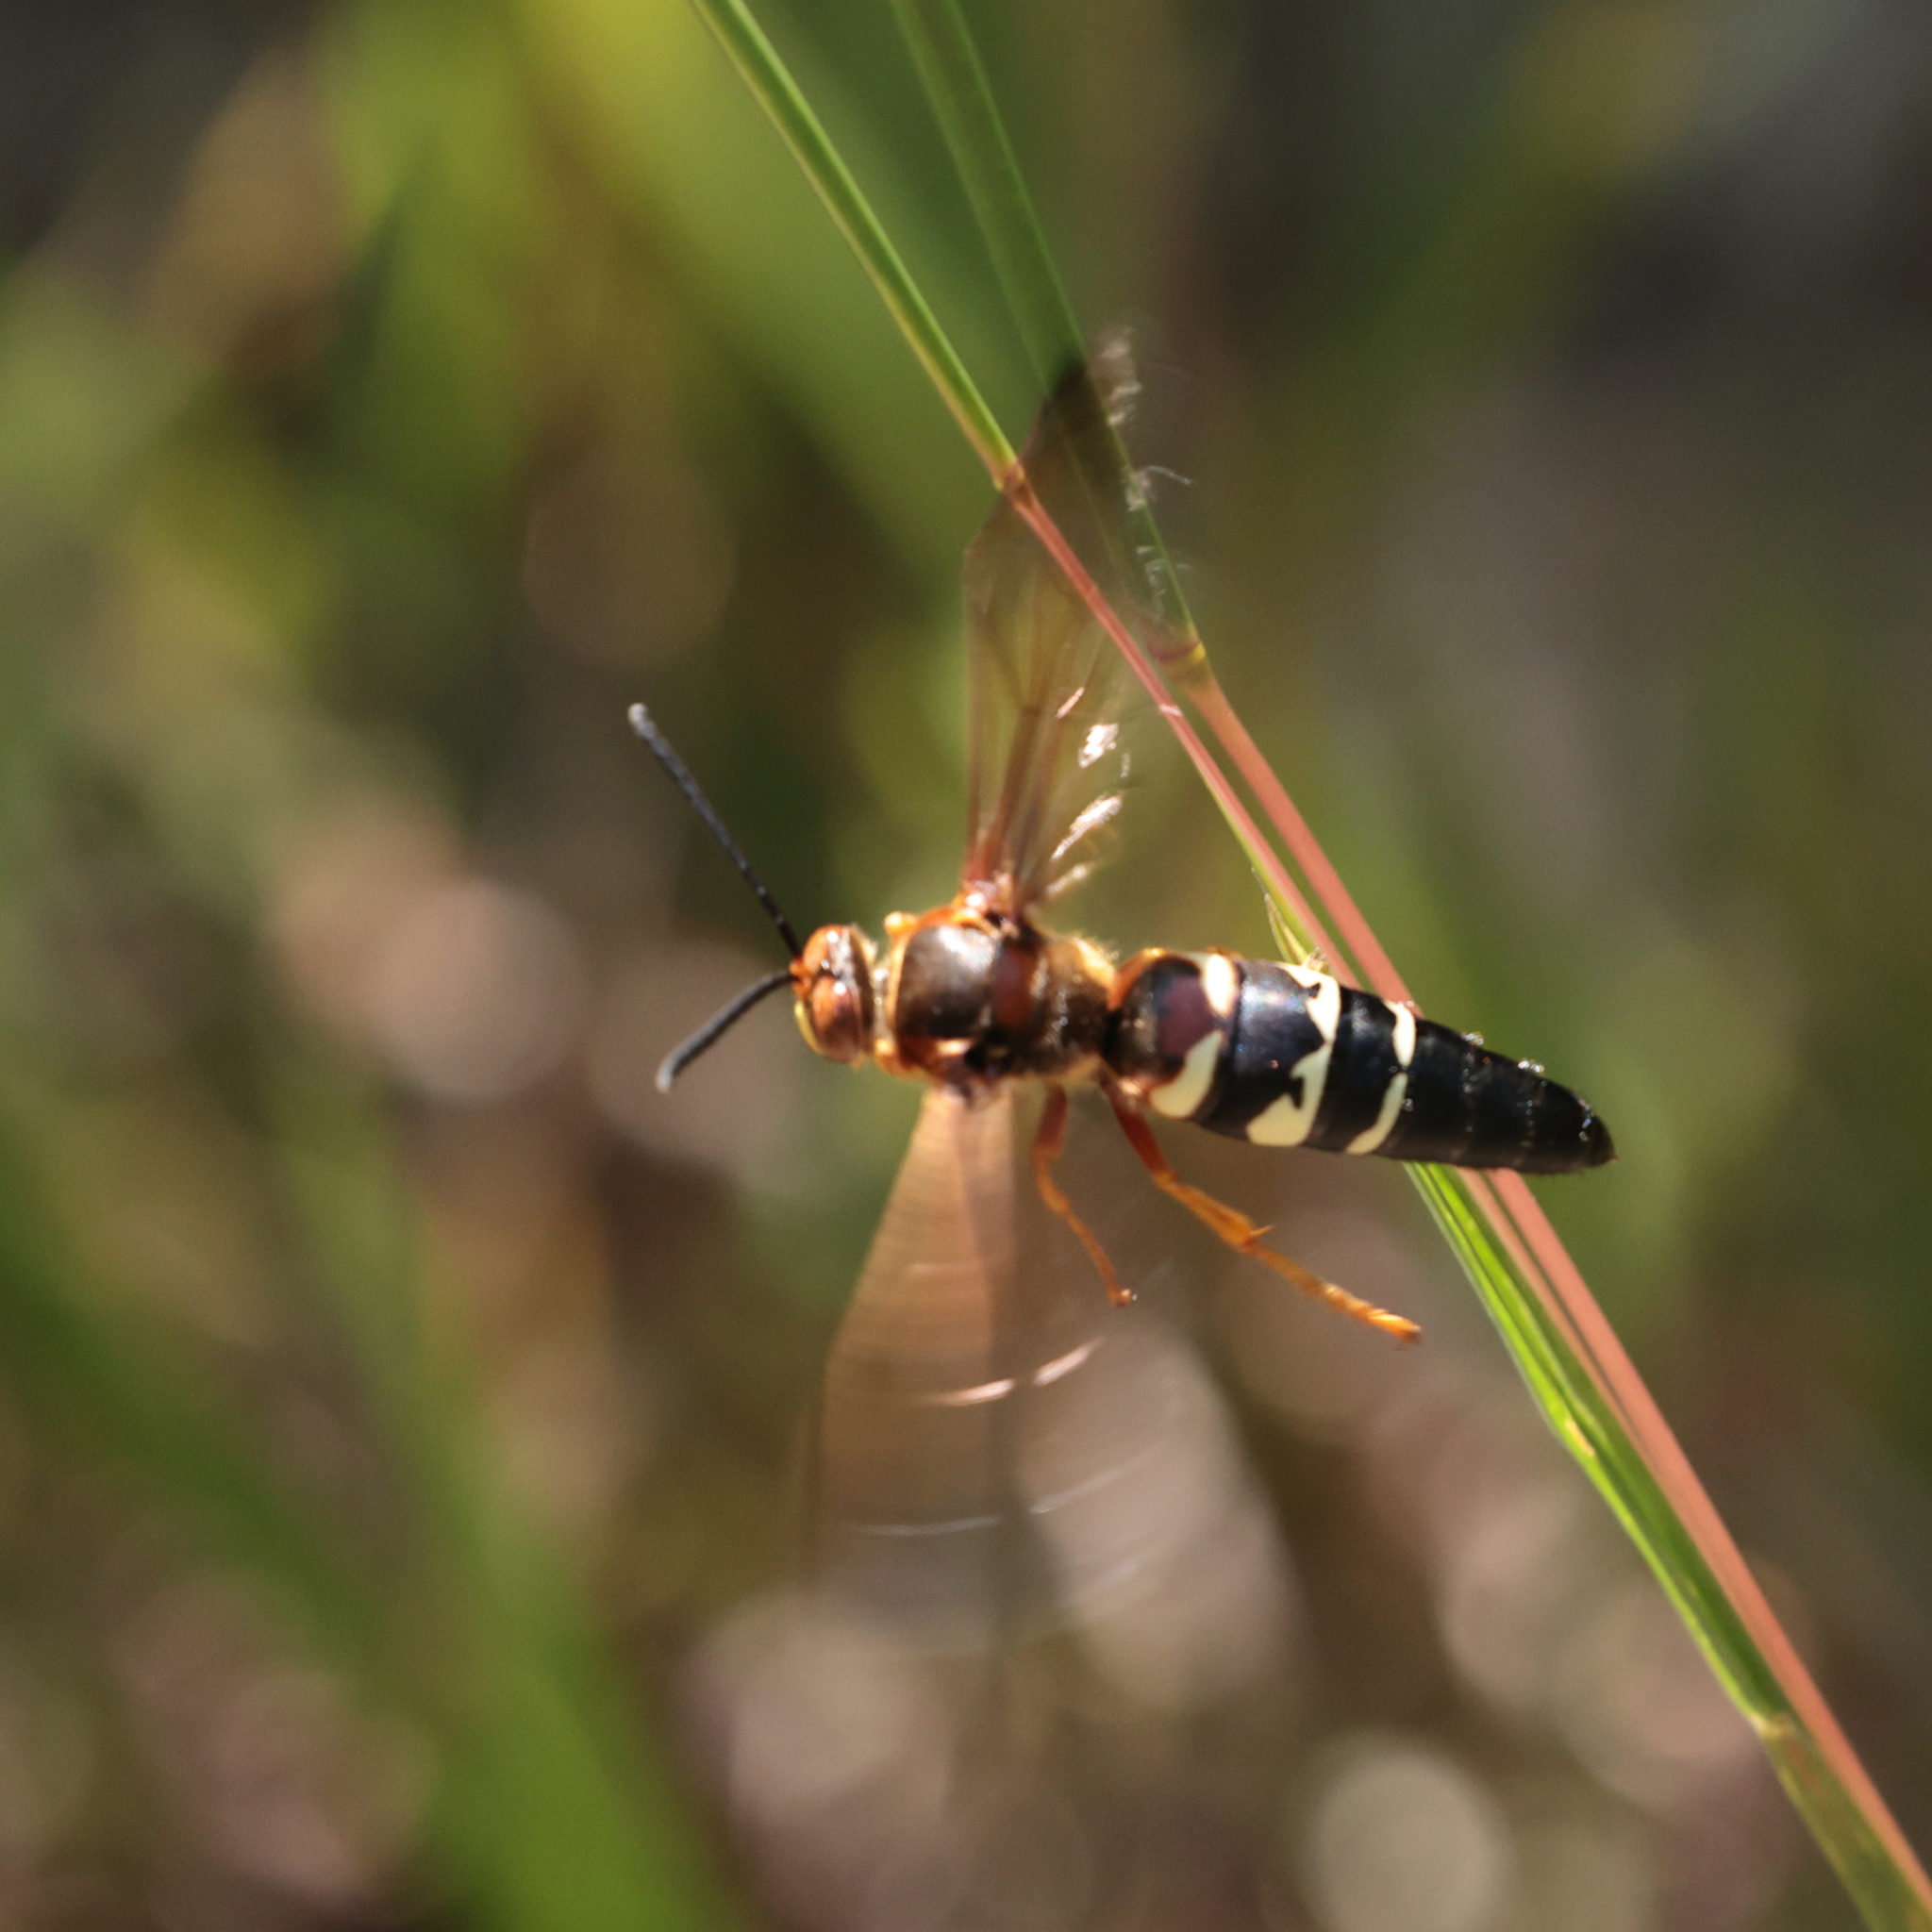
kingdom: Animalia
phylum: Arthropoda
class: Insecta
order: Hymenoptera
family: Crabronidae
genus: Sphecius
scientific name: Sphecius speciosus
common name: Cicada killer
